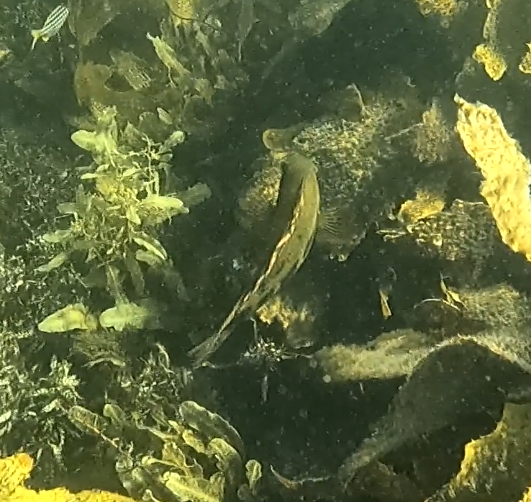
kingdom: Animalia
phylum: Chordata
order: Perciformes
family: Odacidae
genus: Heteroscarus
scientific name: Heteroscarus acroptilus
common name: Marine rainbowfish
